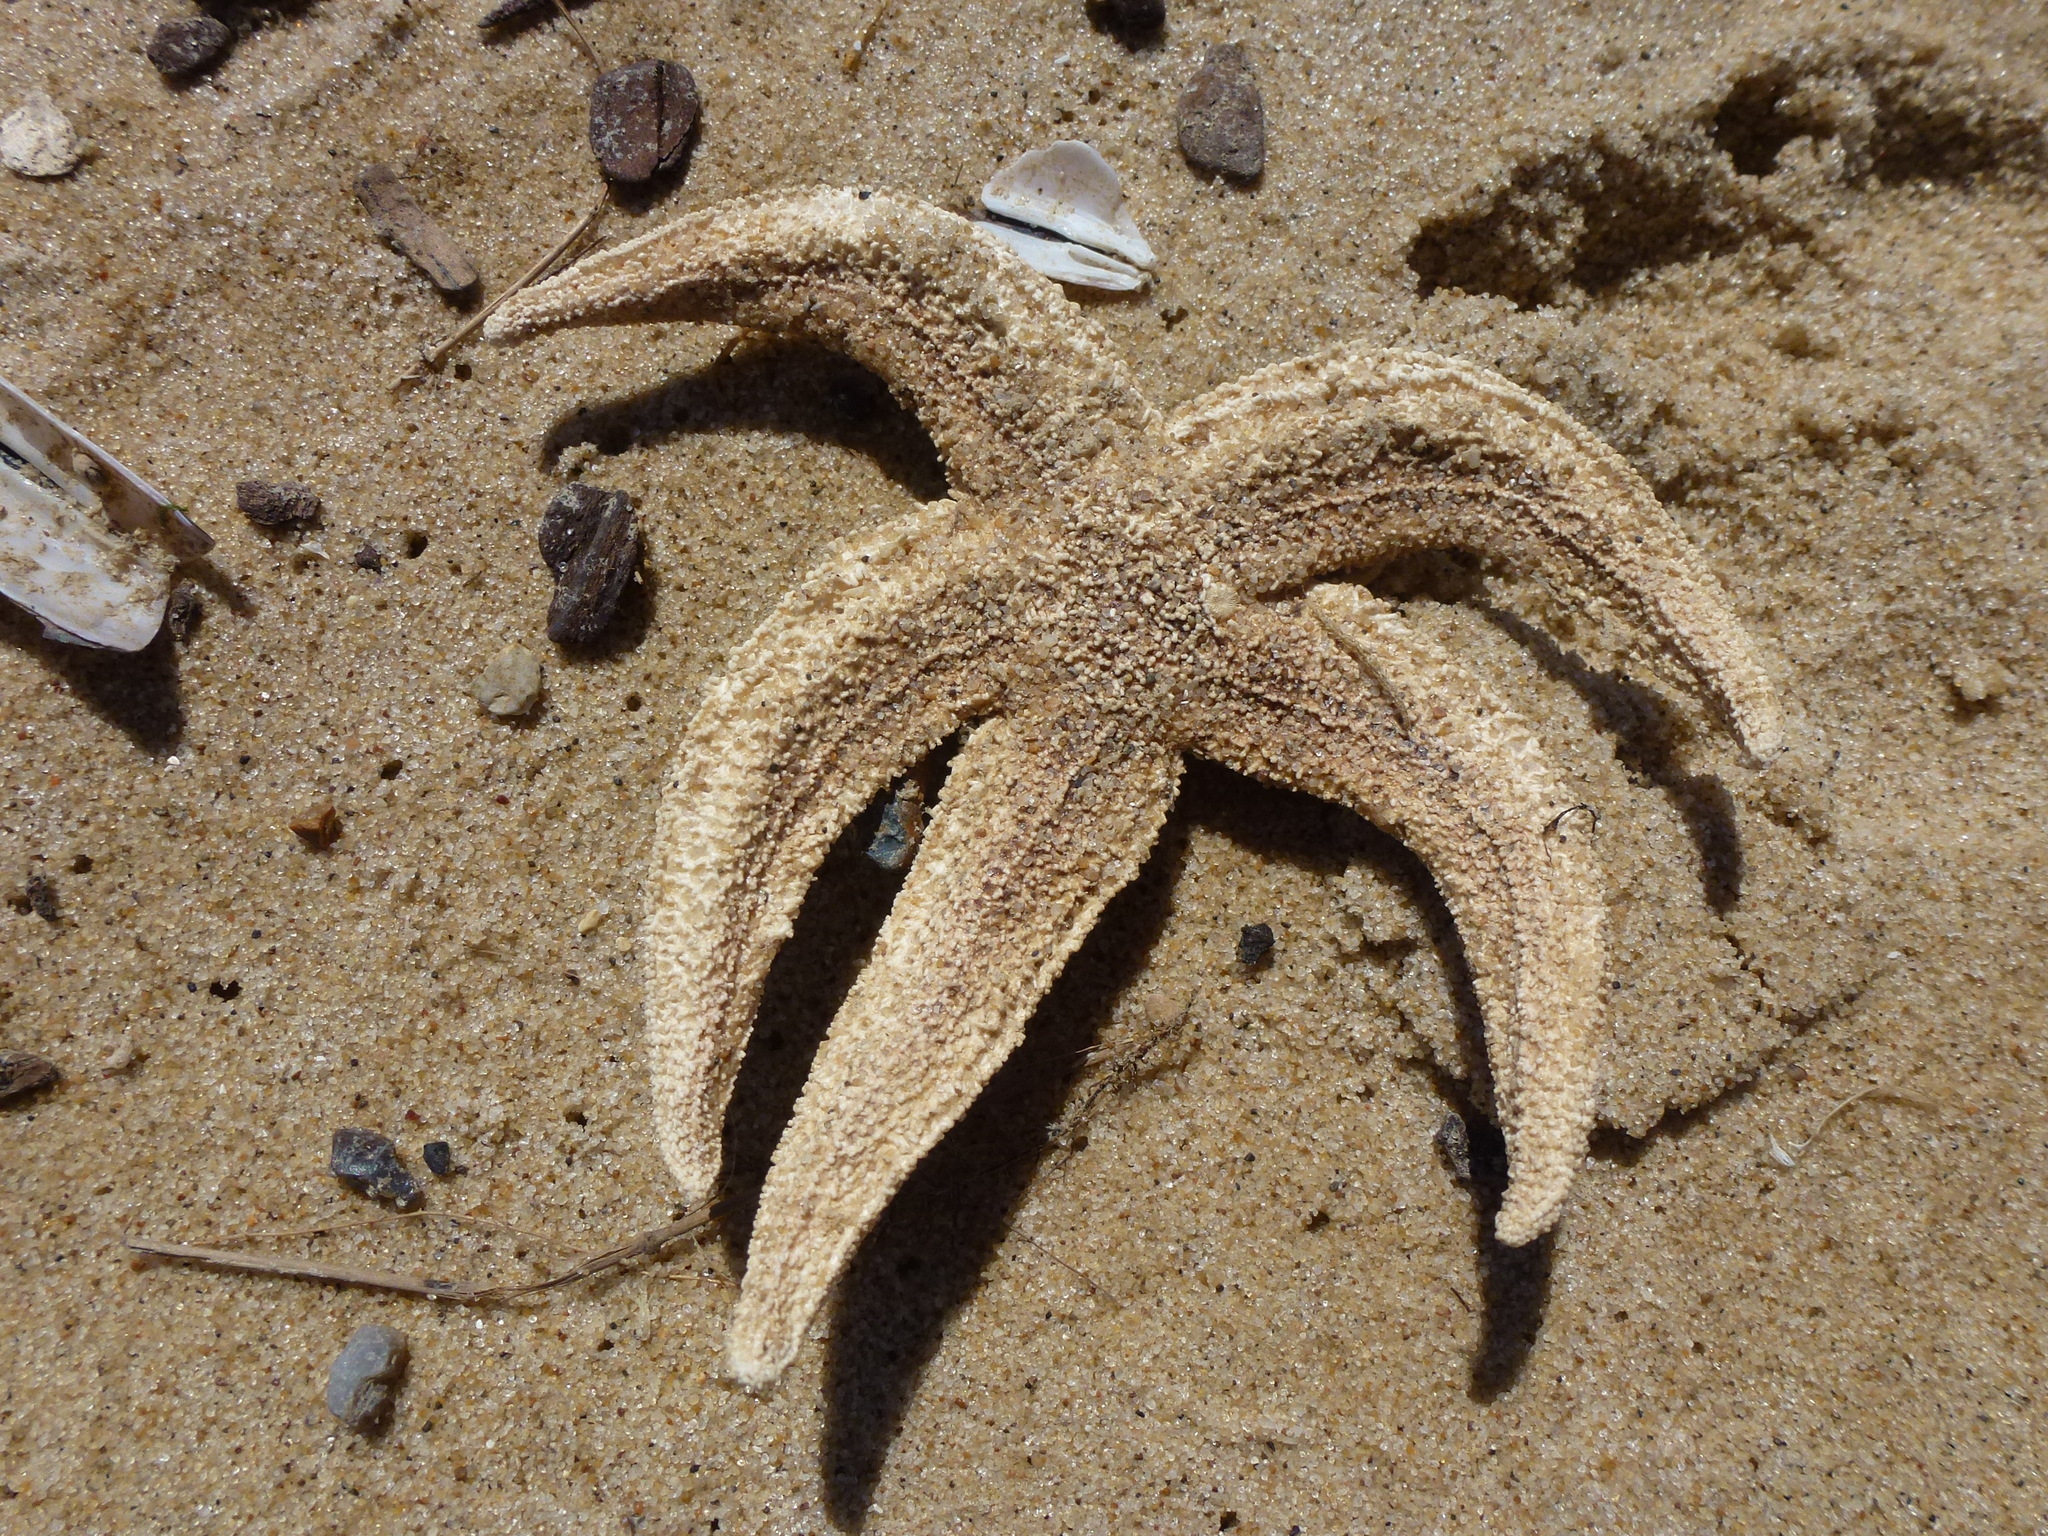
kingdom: Animalia
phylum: Echinodermata
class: Asteroidea
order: Forcipulatida
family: Asteriidae
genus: Asterias
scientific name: Asterias rubens
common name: Common starfish
